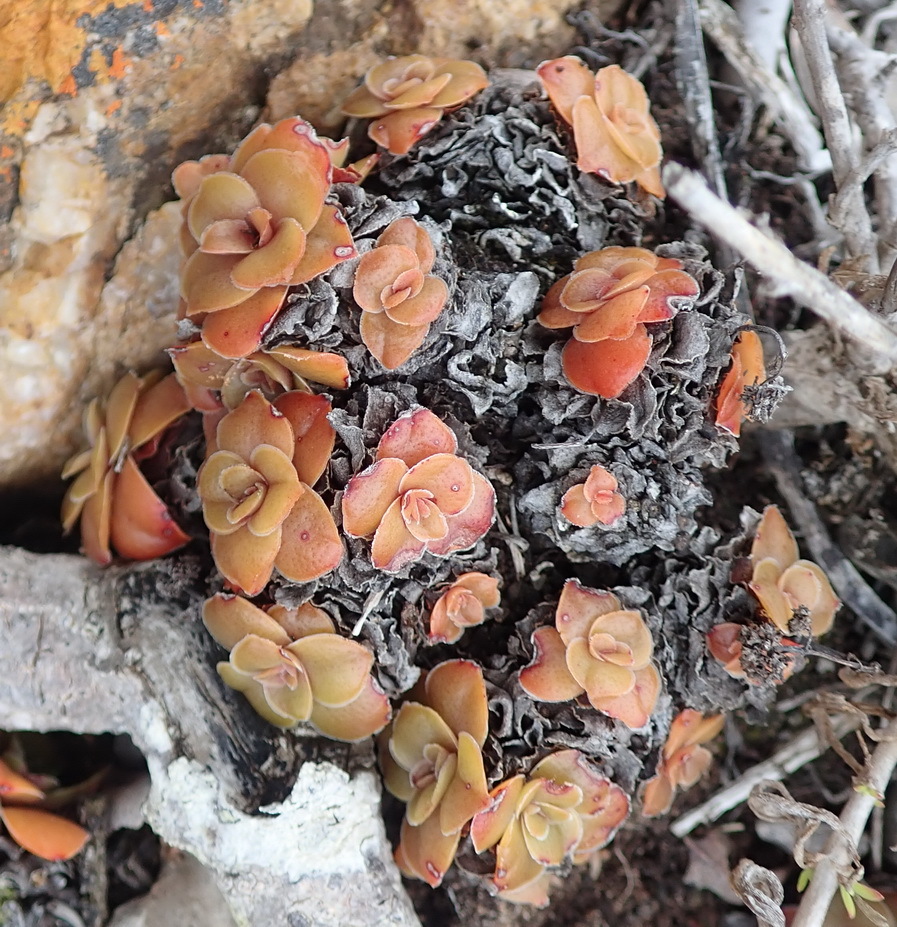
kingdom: Plantae
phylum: Tracheophyta
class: Magnoliopsida
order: Saxifragales
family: Crassulaceae
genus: Crassula
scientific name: Crassula orbicularis
